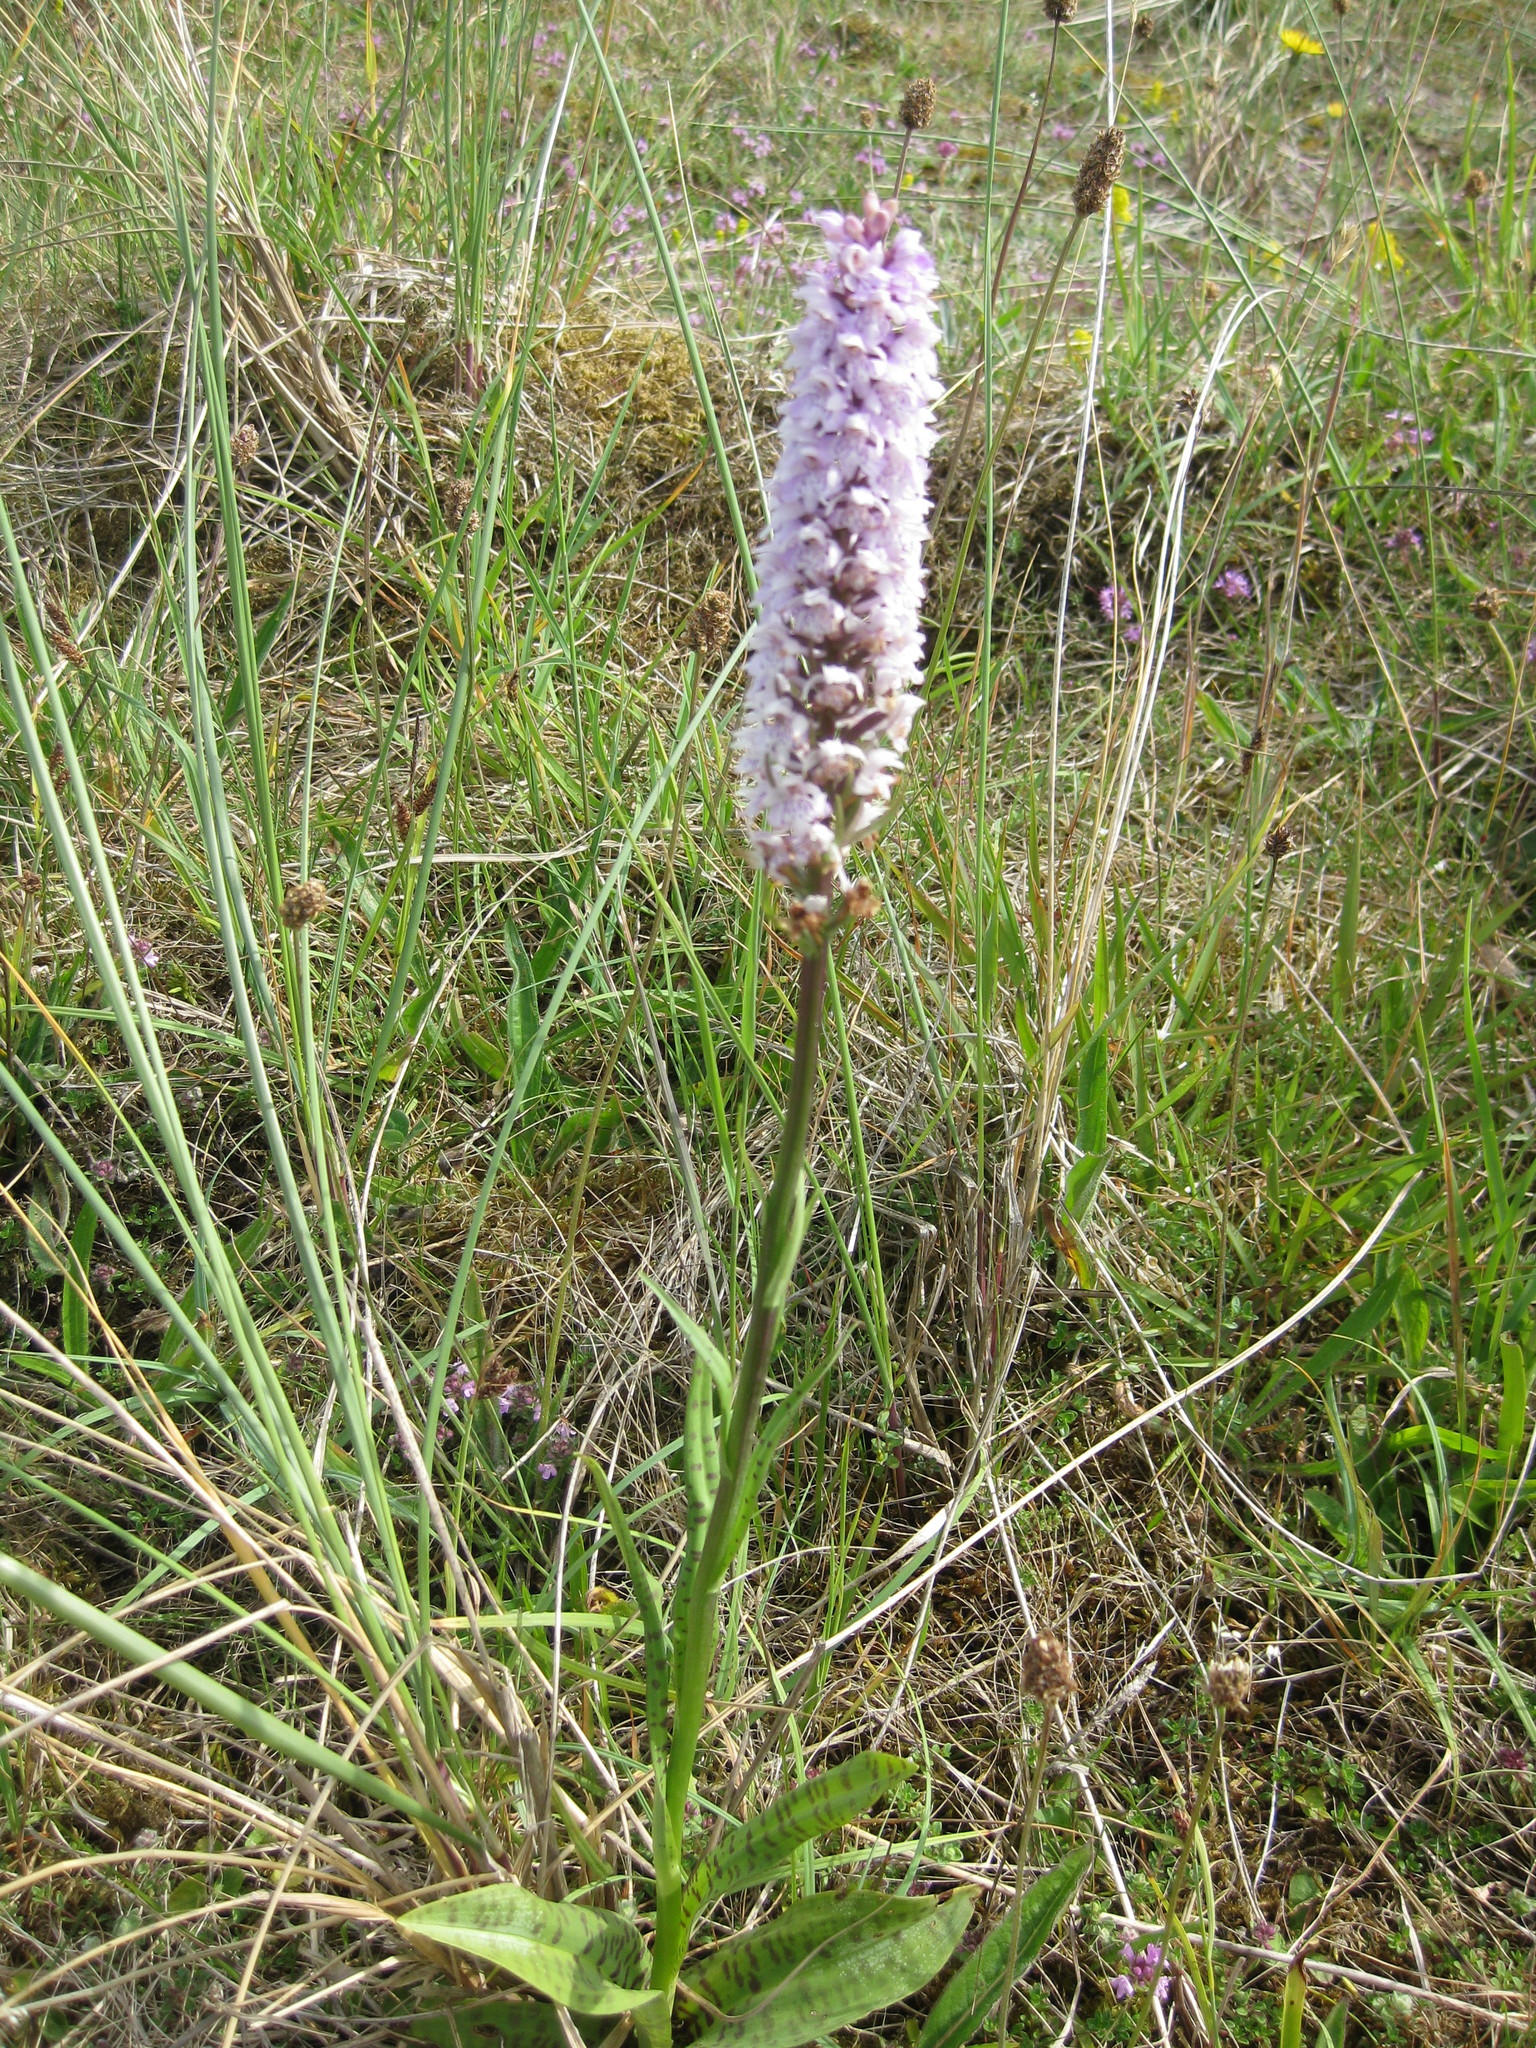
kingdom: Plantae
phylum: Tracheophyta
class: Liliopsida
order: Asparagales
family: Orchidaceae
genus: Dactylorhiza
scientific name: Dactylorhiza maculata
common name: Heath spotted-orchid
